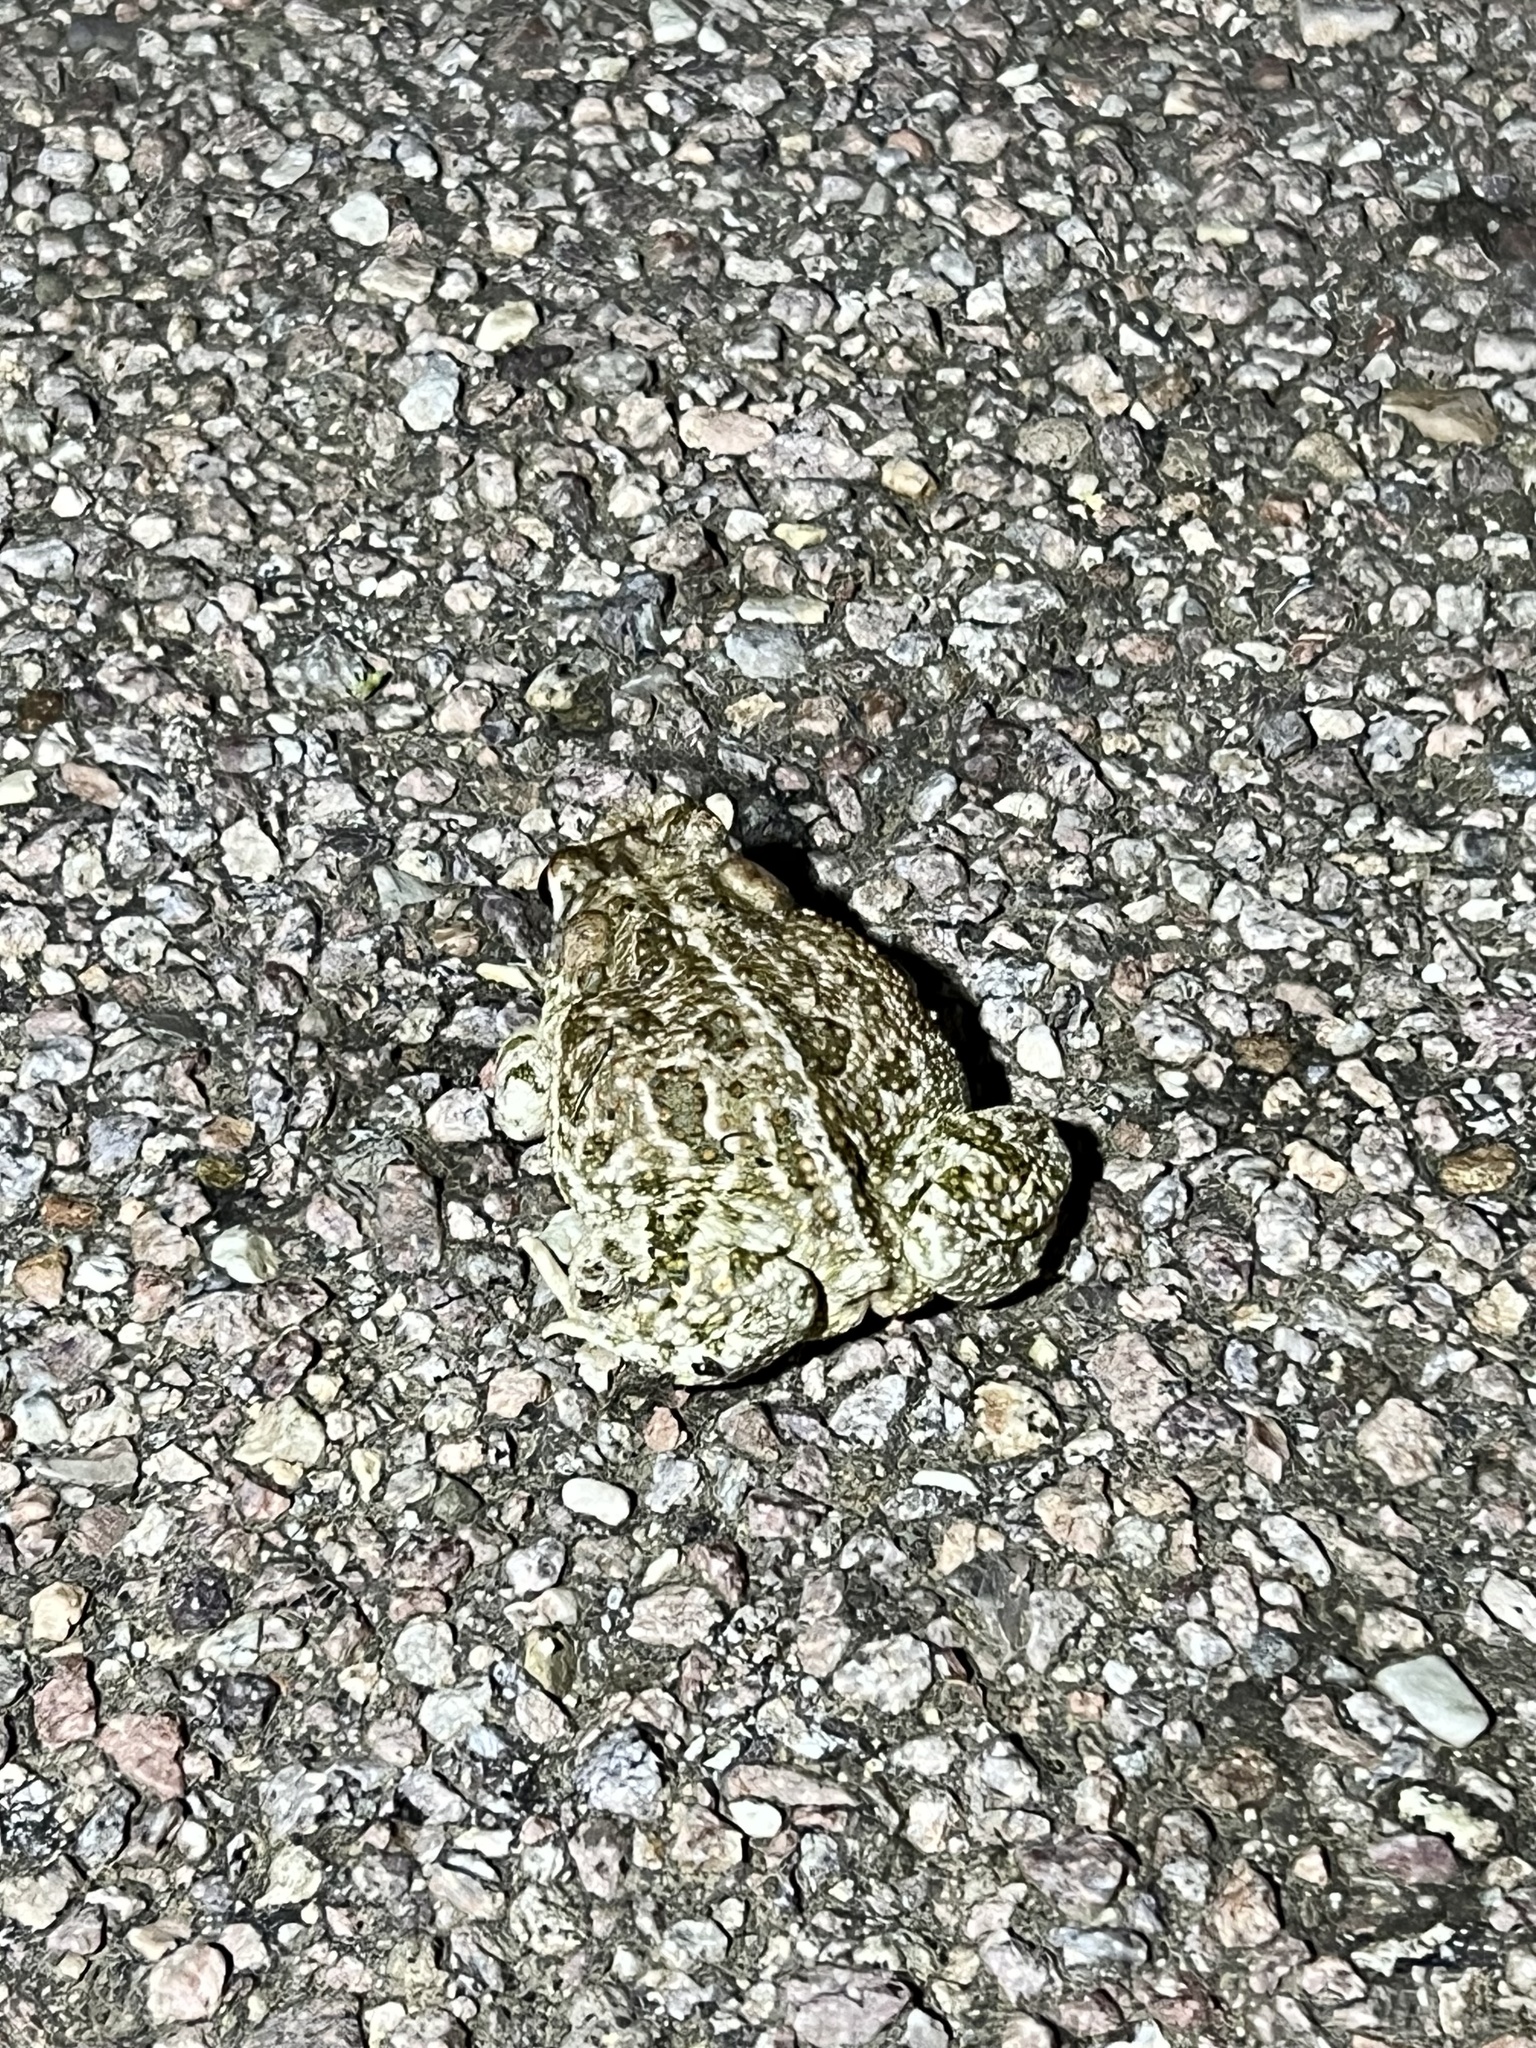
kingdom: Animalia
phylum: Chordata
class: Amphibia
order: Anura
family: Bufonidae
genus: Anaxyrus
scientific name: Anaxyrus cognatus
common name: Great plains toad
